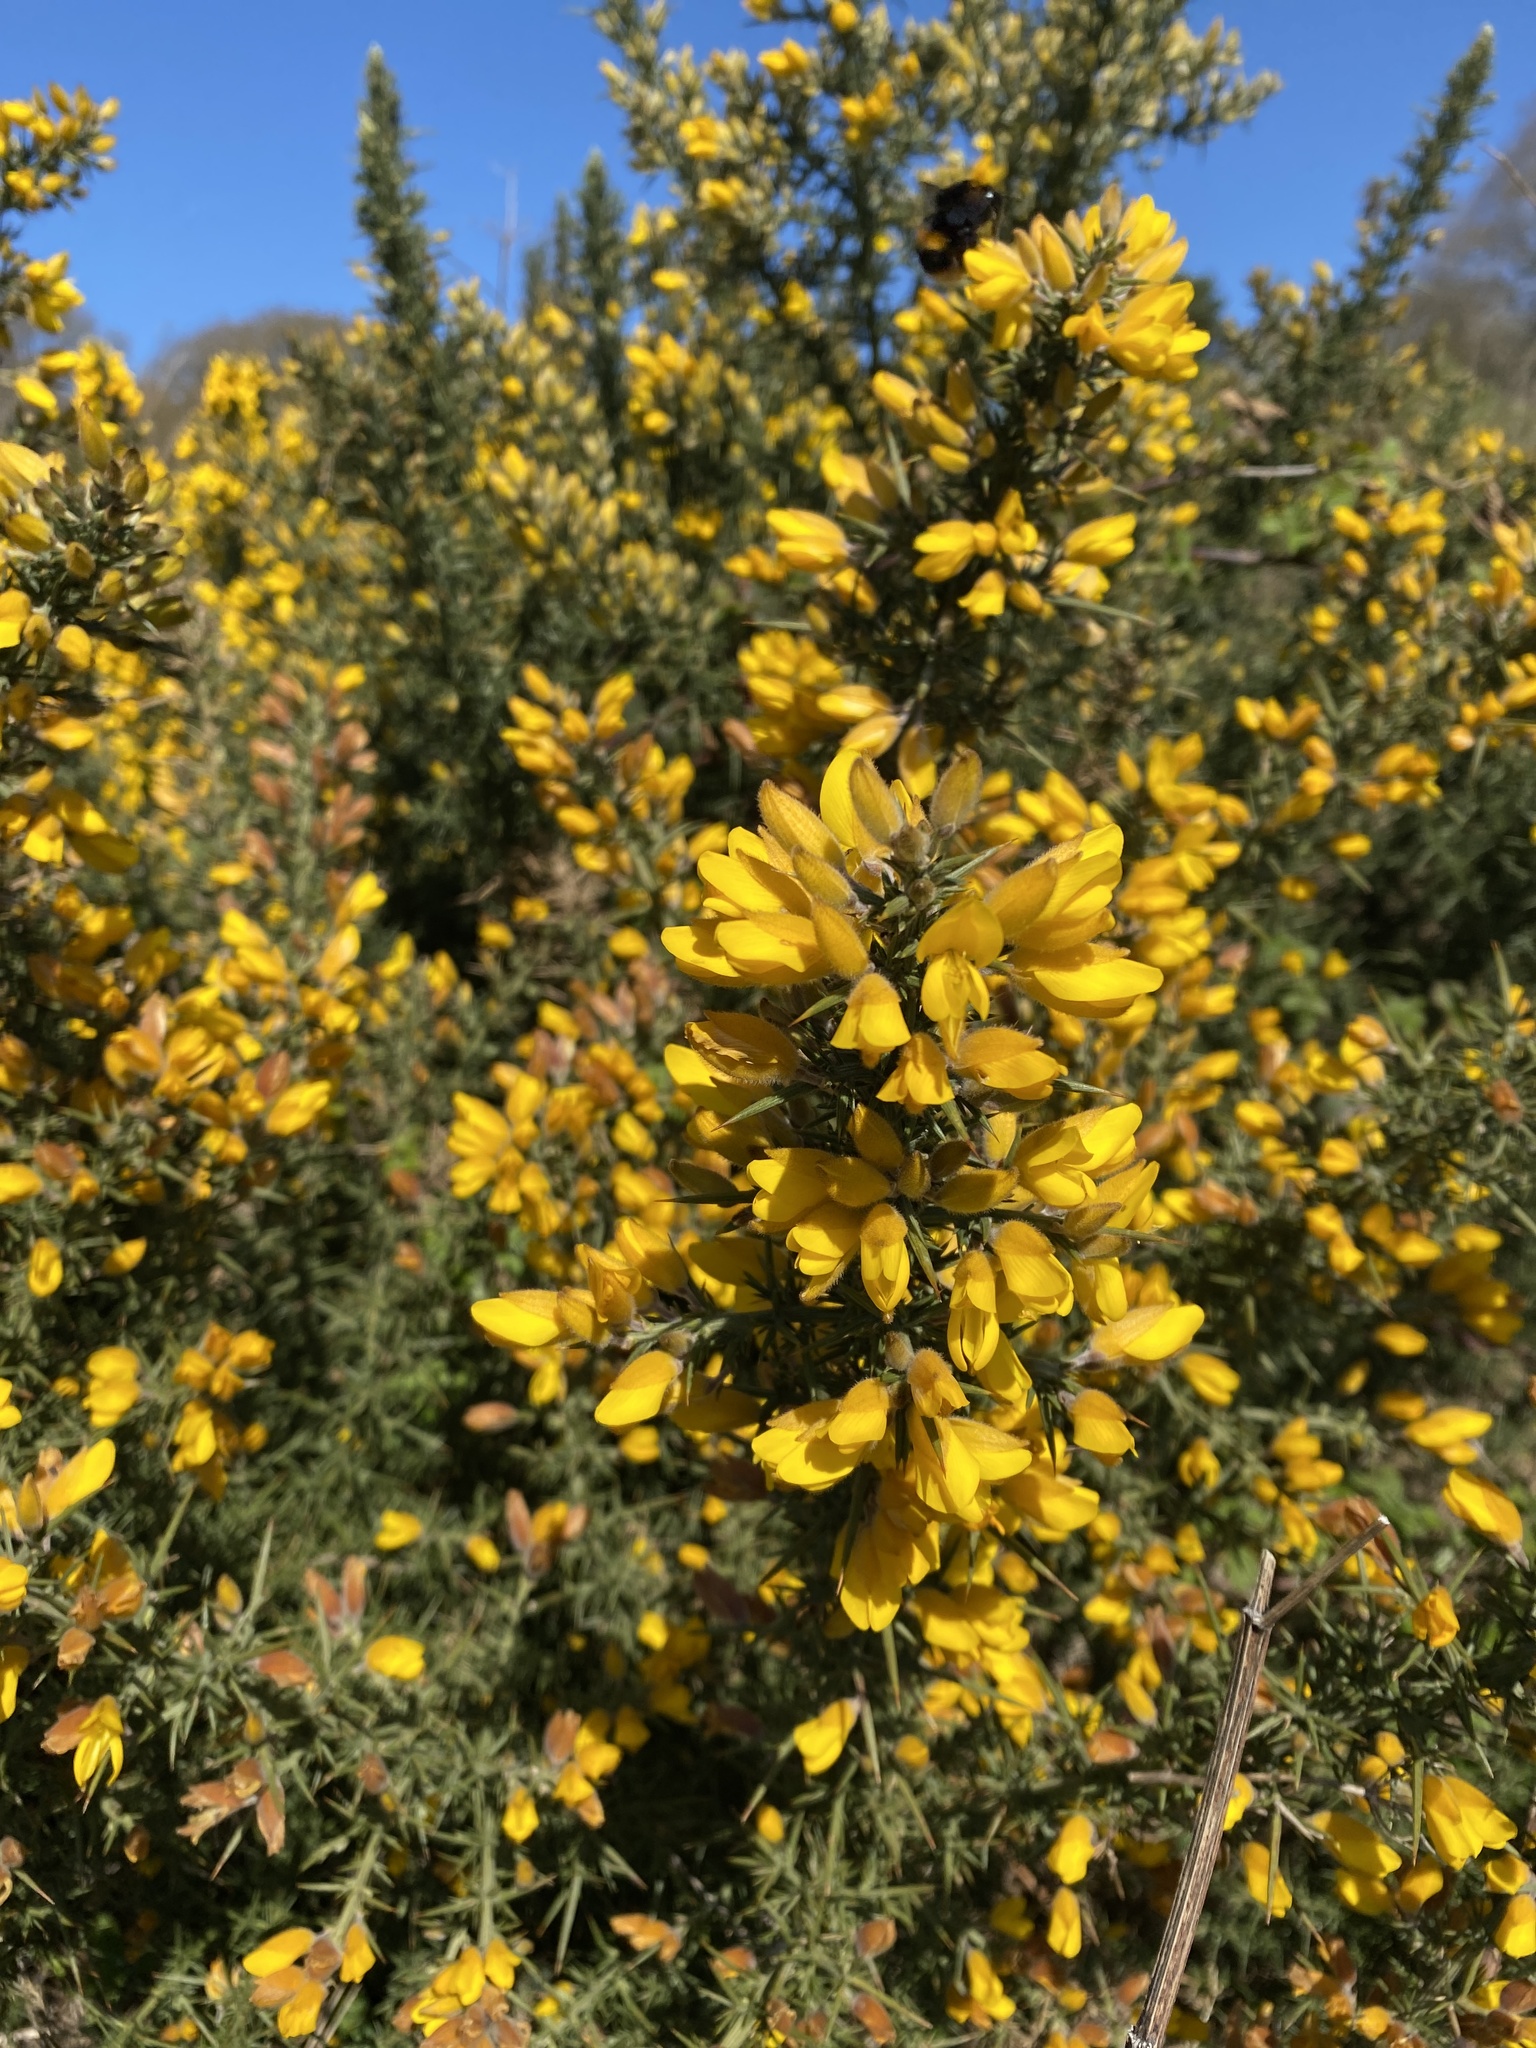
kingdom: Plantae
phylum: Tracheophyta
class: Magnoliopsida
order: Fabales
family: Fabaceae
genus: Ulex
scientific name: Ulex europaeus
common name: Common gorse
